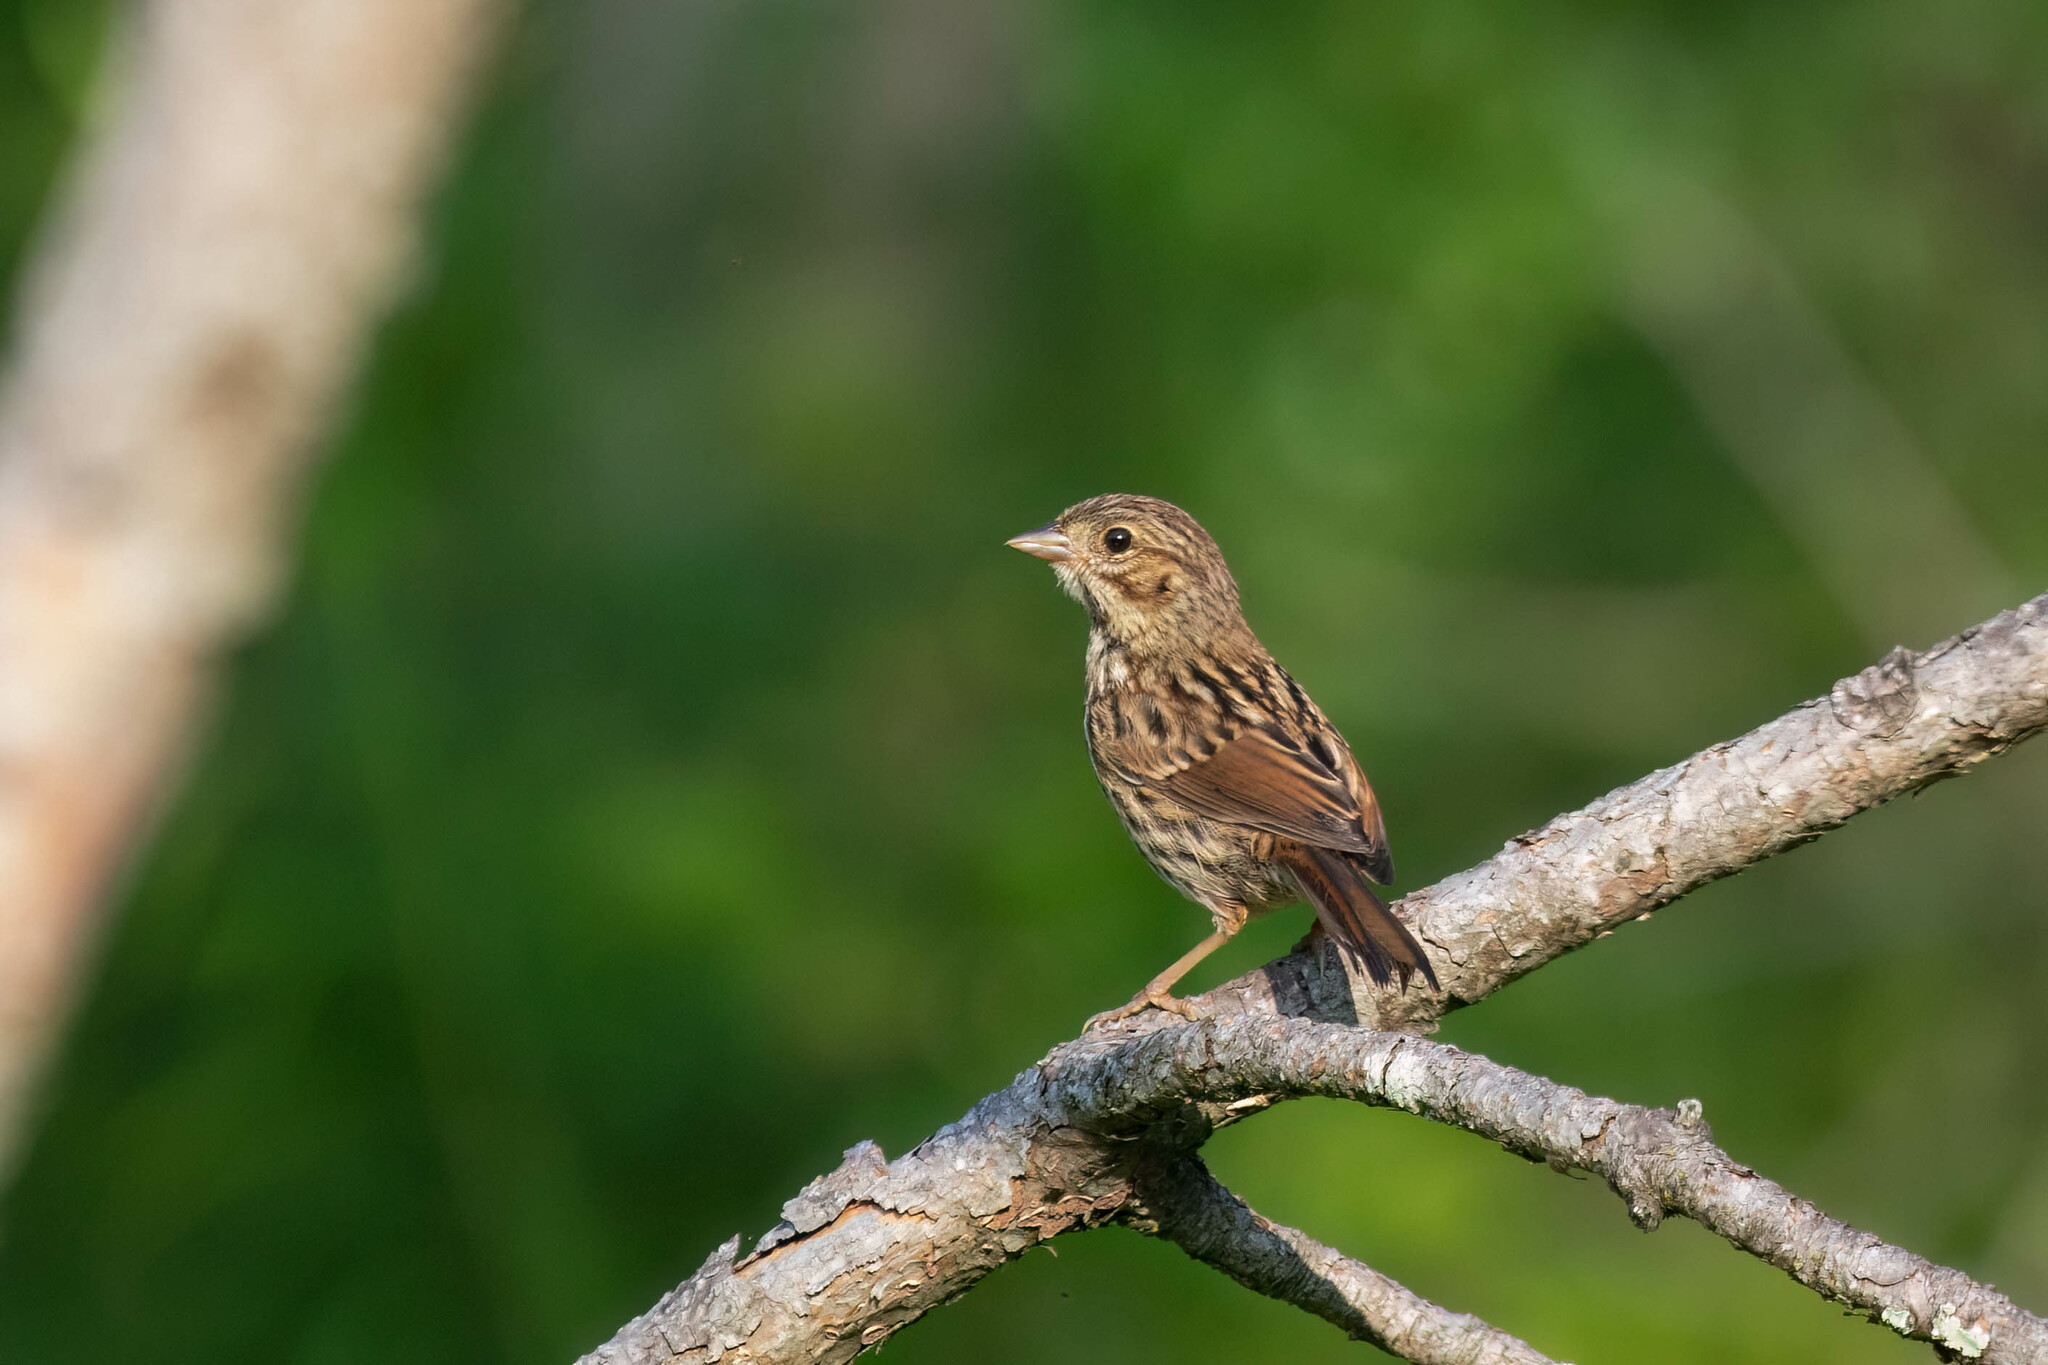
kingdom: Animalia
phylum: Chordata
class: Aves
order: Passeriformes
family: Passerellidae
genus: Melospiza
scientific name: Melospiza melodia
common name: Song sparrow
